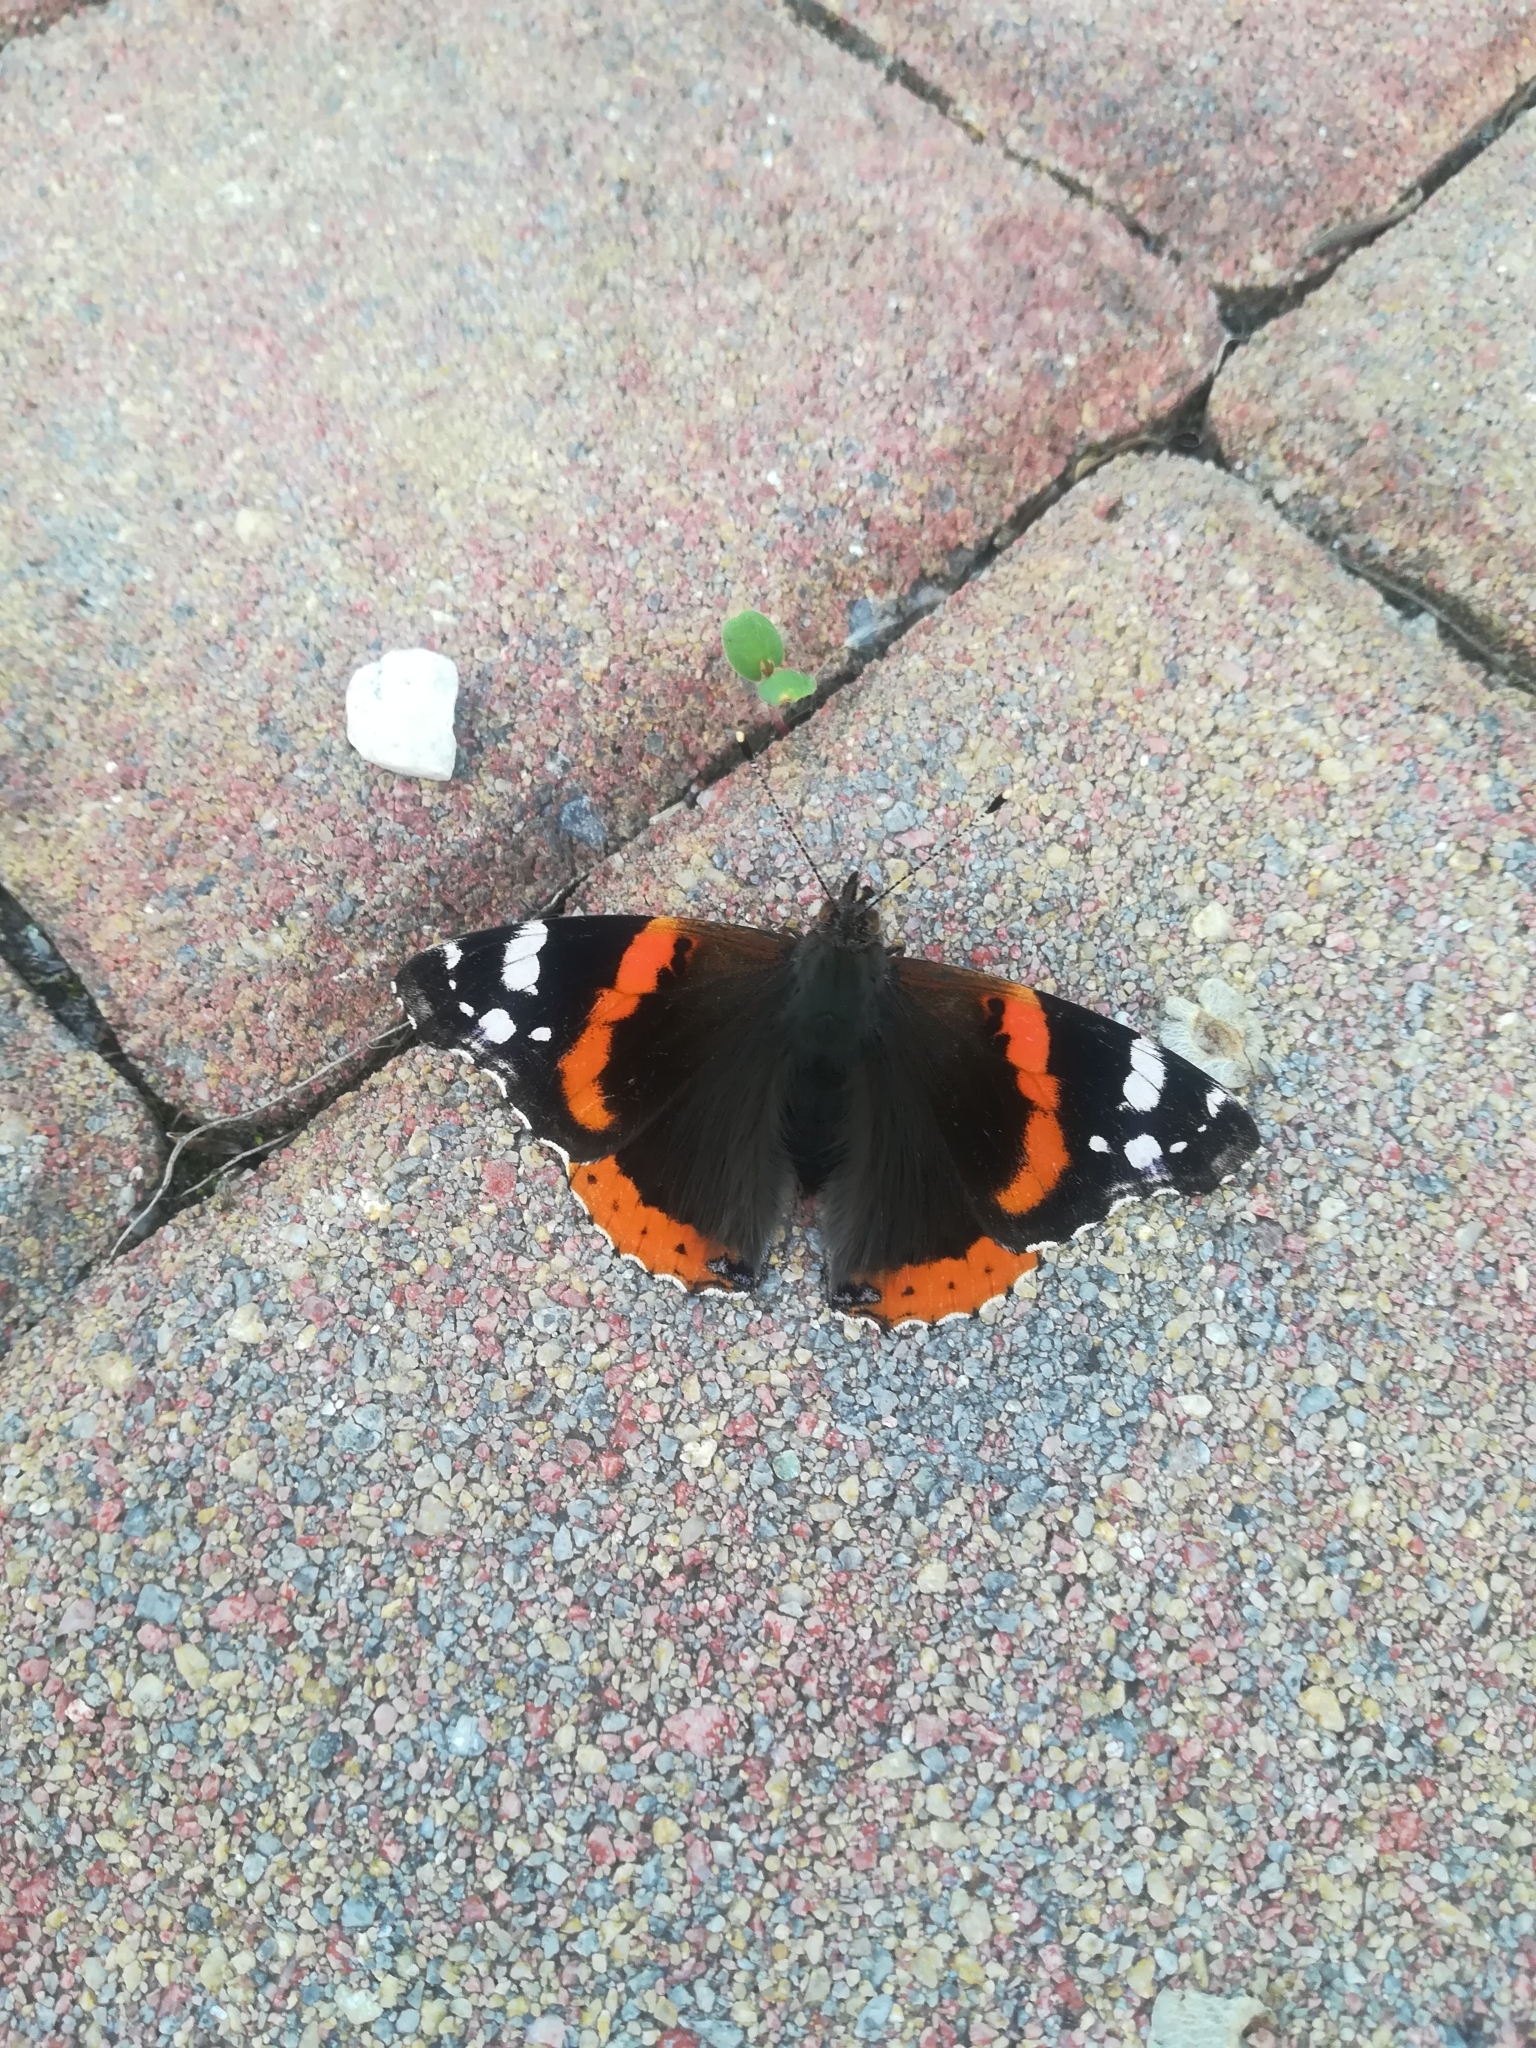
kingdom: Animalia
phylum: Arthropoda
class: Insecta
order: Lepidoptera
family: Nymphalidae
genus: Vanessa
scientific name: Vanessa atalanta
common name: Red admiral
